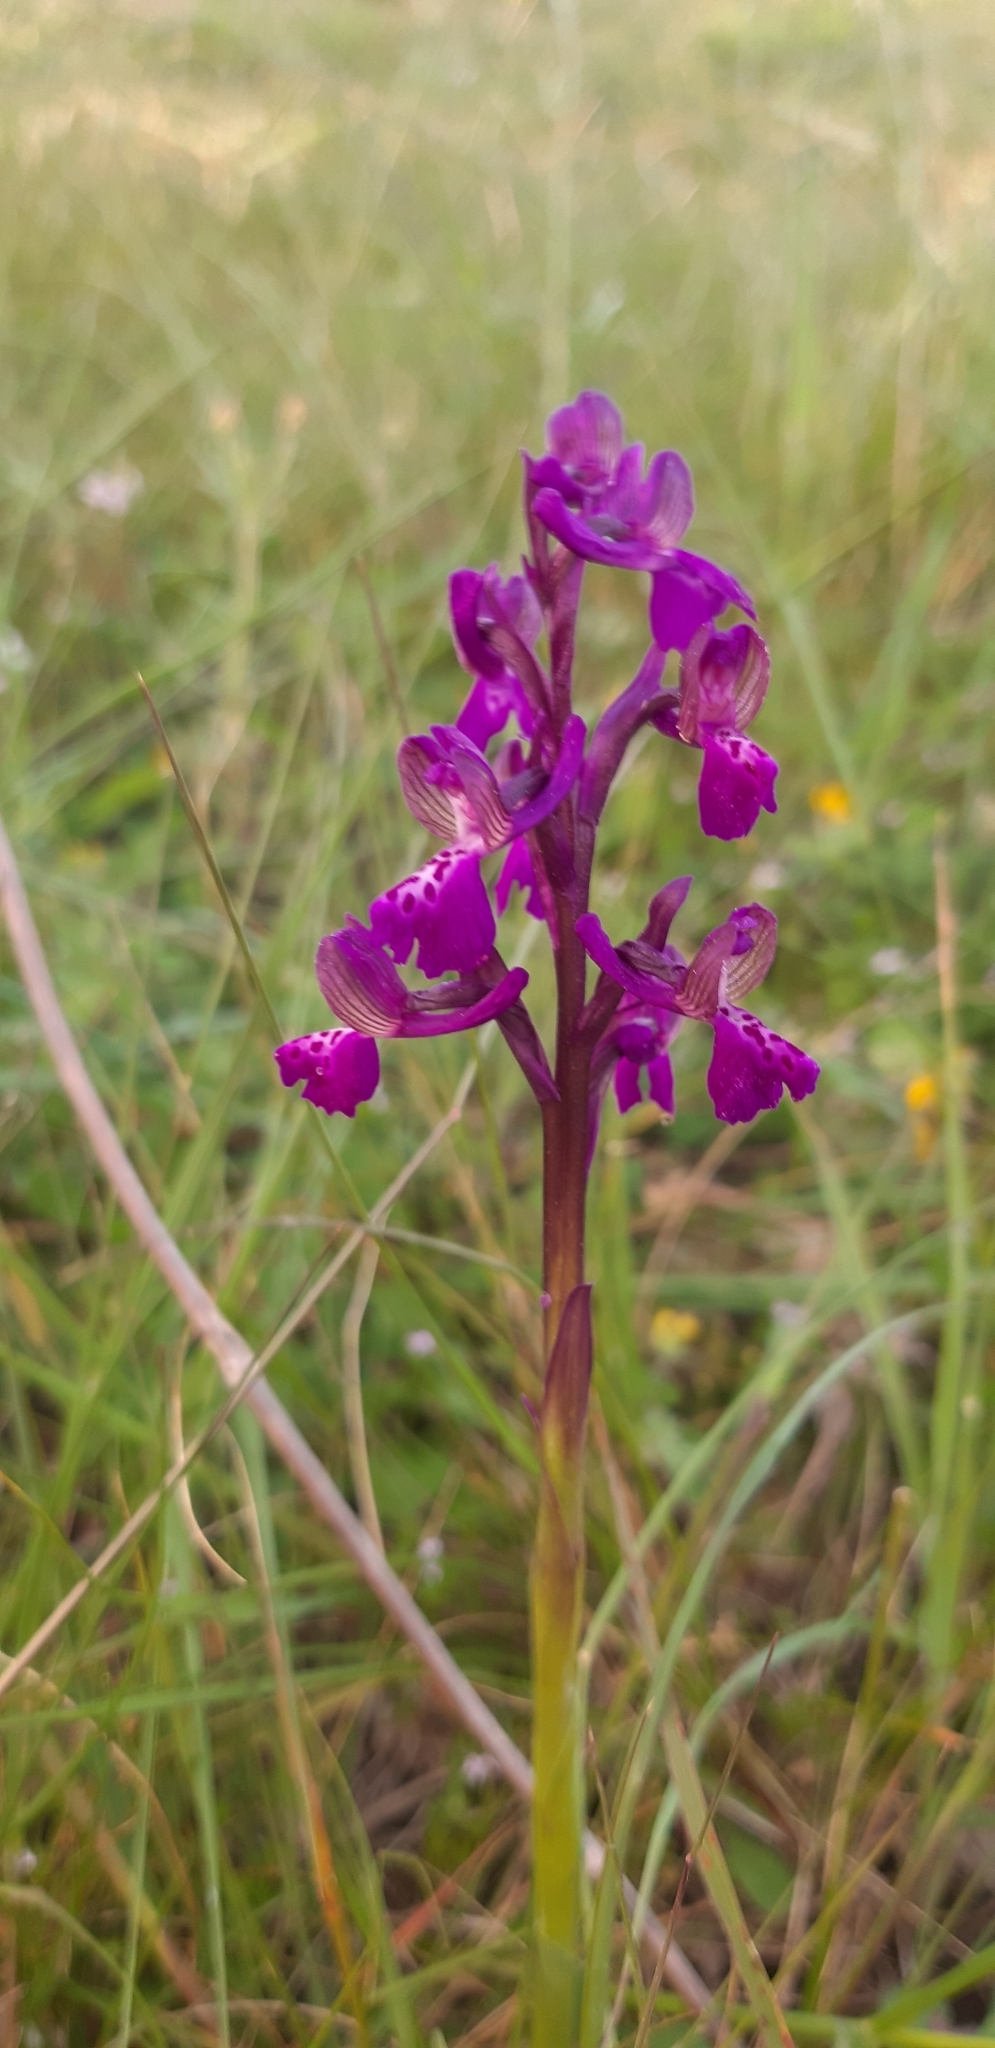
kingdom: Plantae
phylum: Tracheophyta
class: Liliopsida
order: Asparagales
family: Orchidaceae
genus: Anacamptis
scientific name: Anacamptis morio
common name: Green-winged orchid
